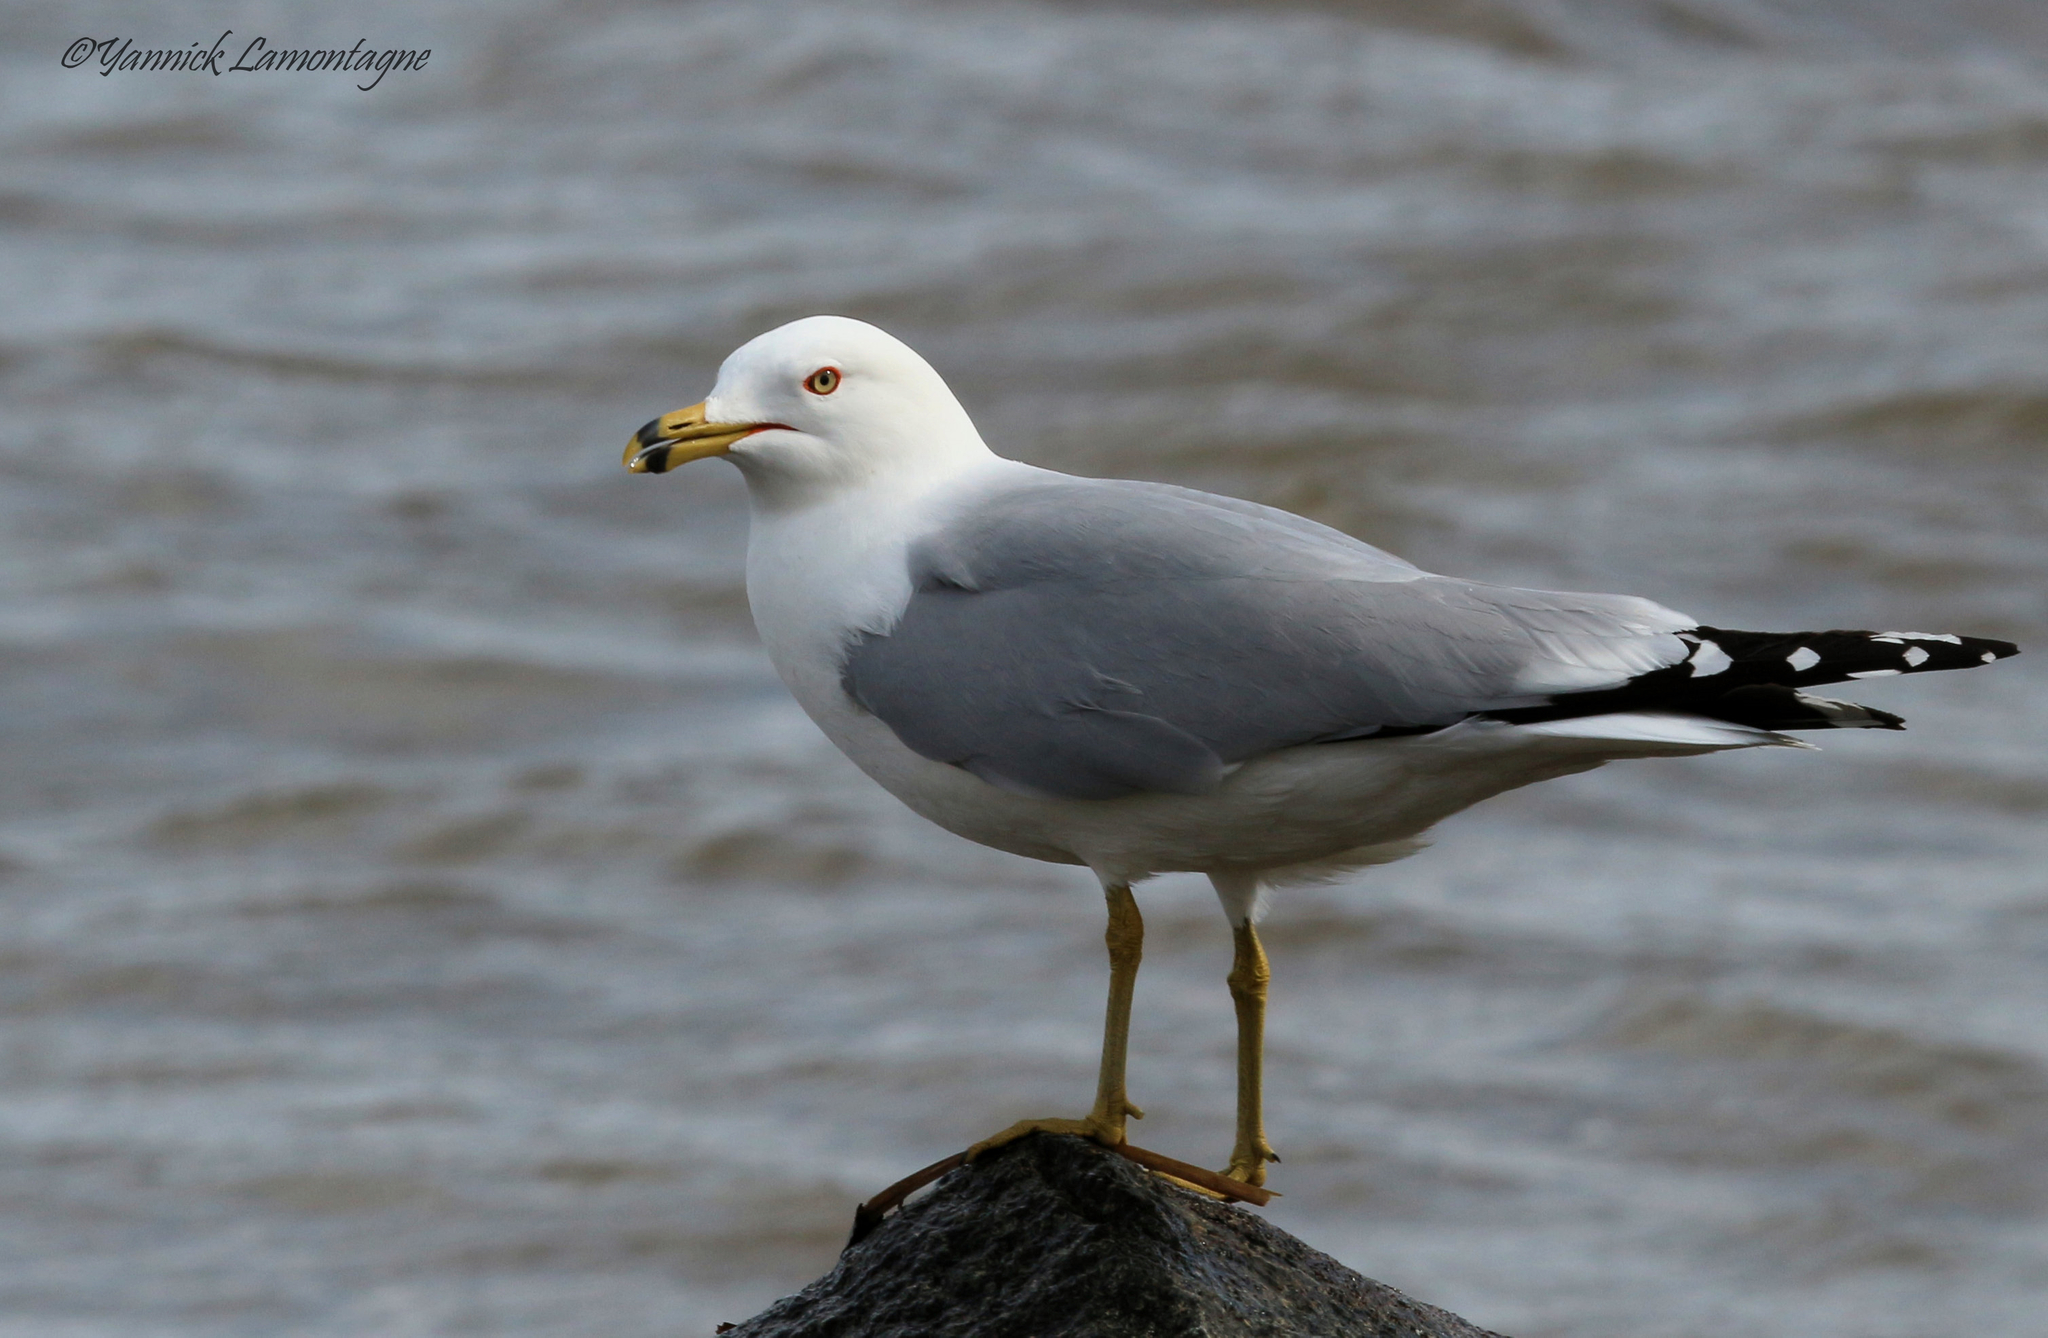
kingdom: Animalia
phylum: Chordata
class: Aves
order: Charadriiformes
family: Laridae
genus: Larus
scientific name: Larus delawarensis
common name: Ring-billed gull
